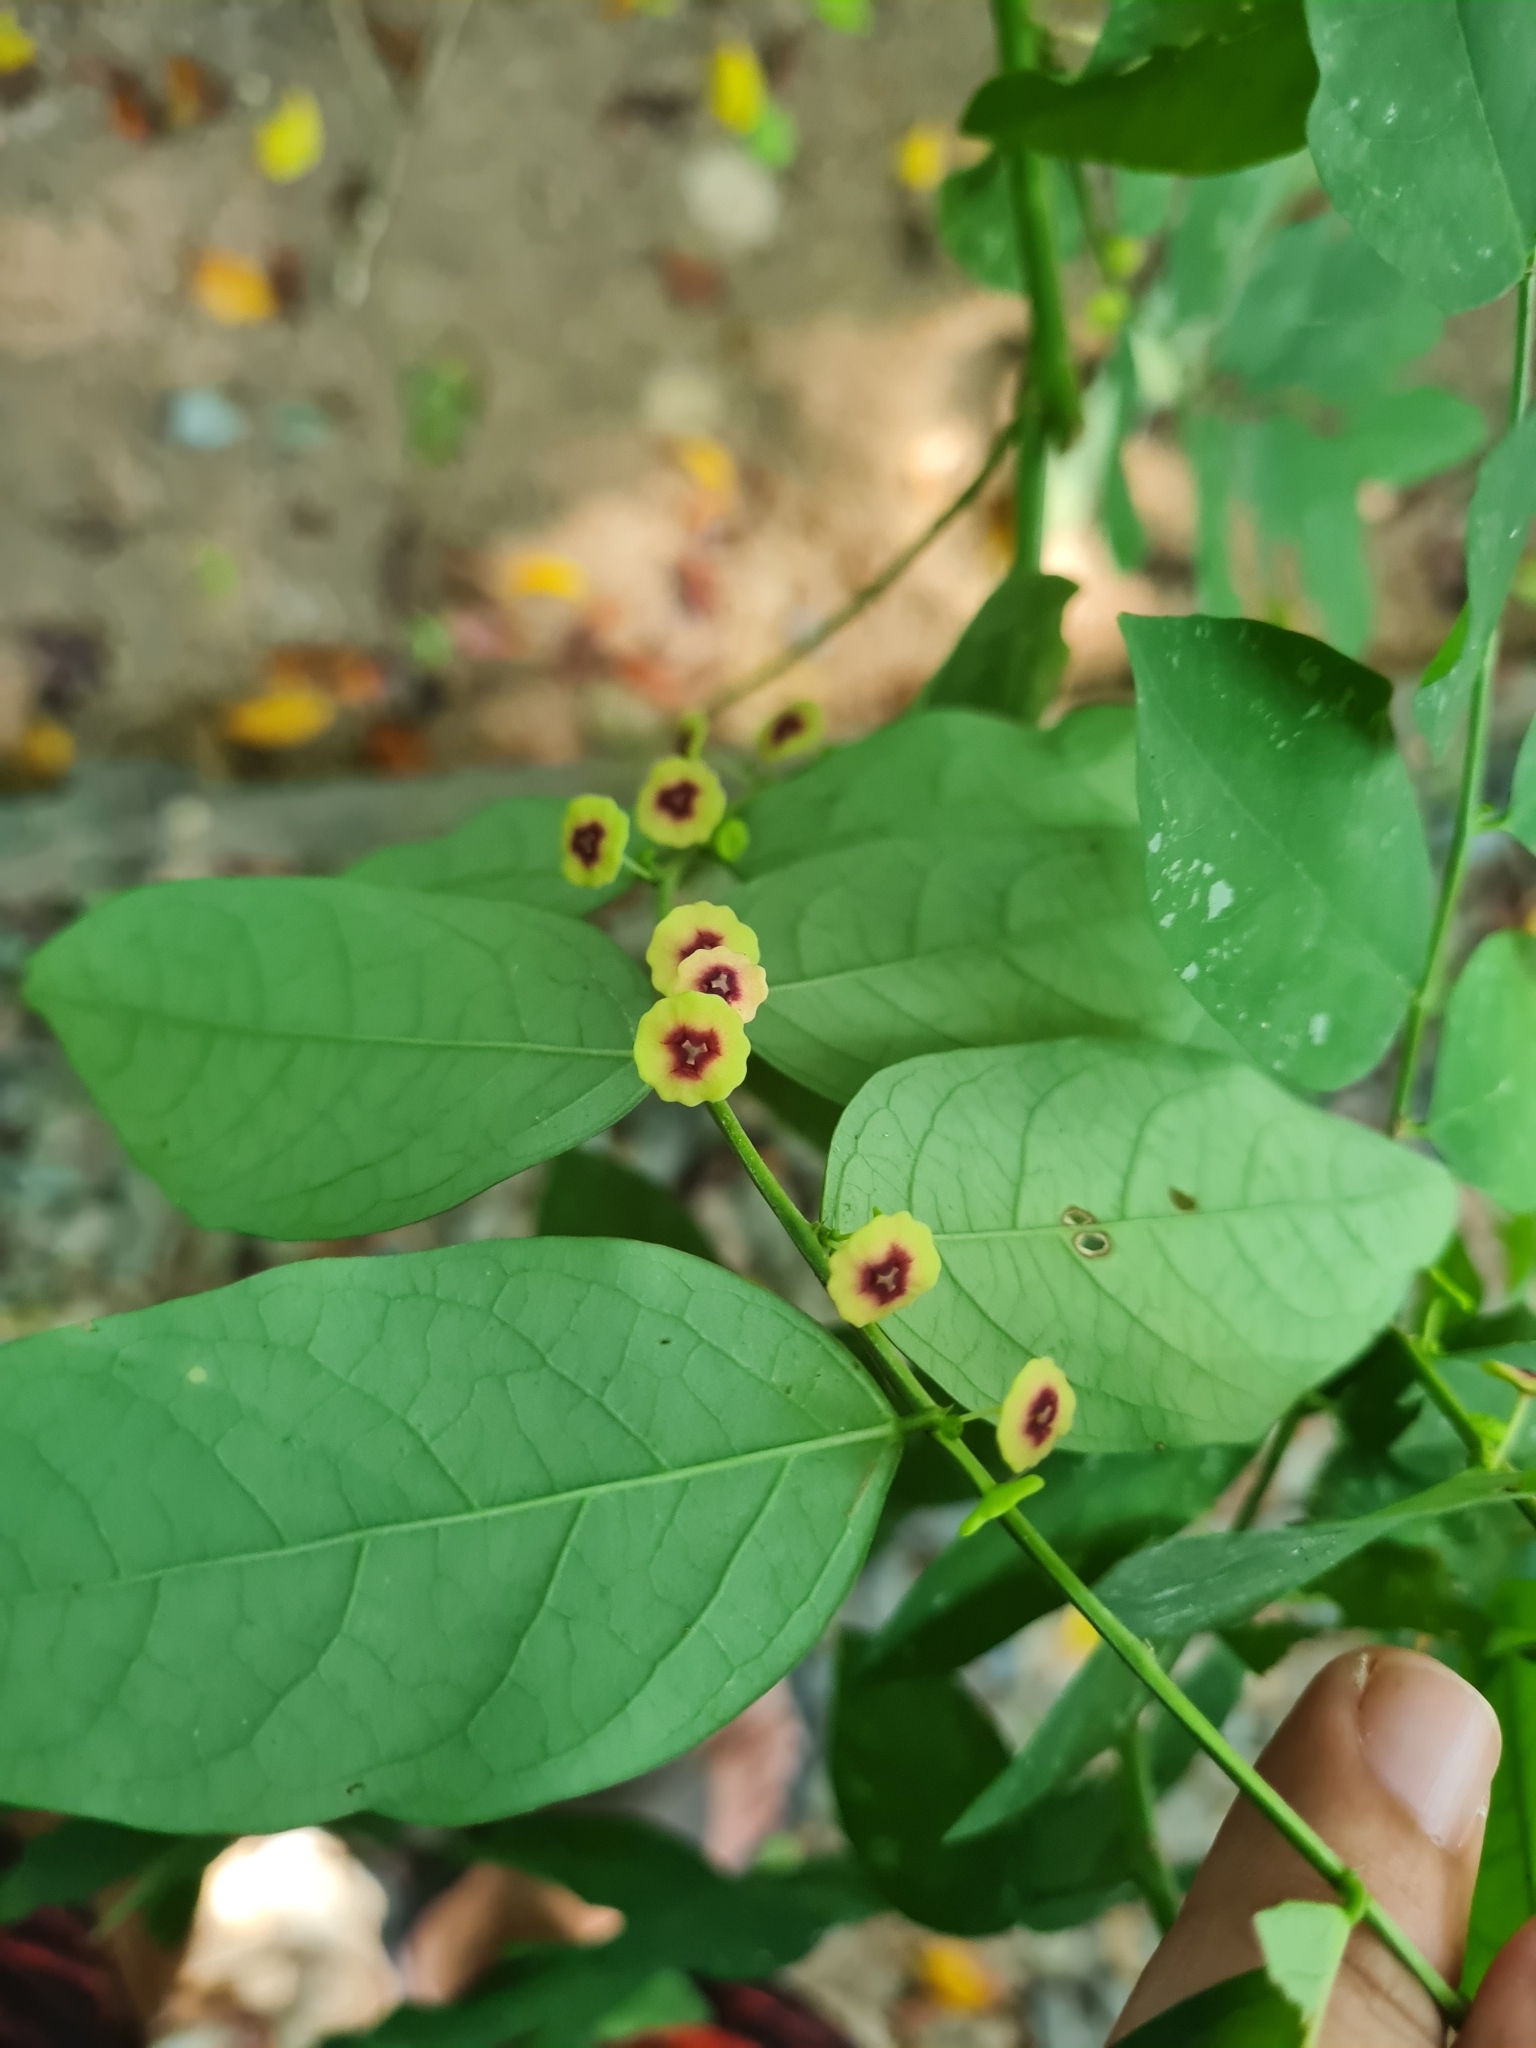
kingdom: Plantae
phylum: Tracheophyta
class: Magnoliopsida
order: Malpighiales
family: Phyllanthaceae
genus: Breynia
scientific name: Breynia androgyna
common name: Star gooseberry
